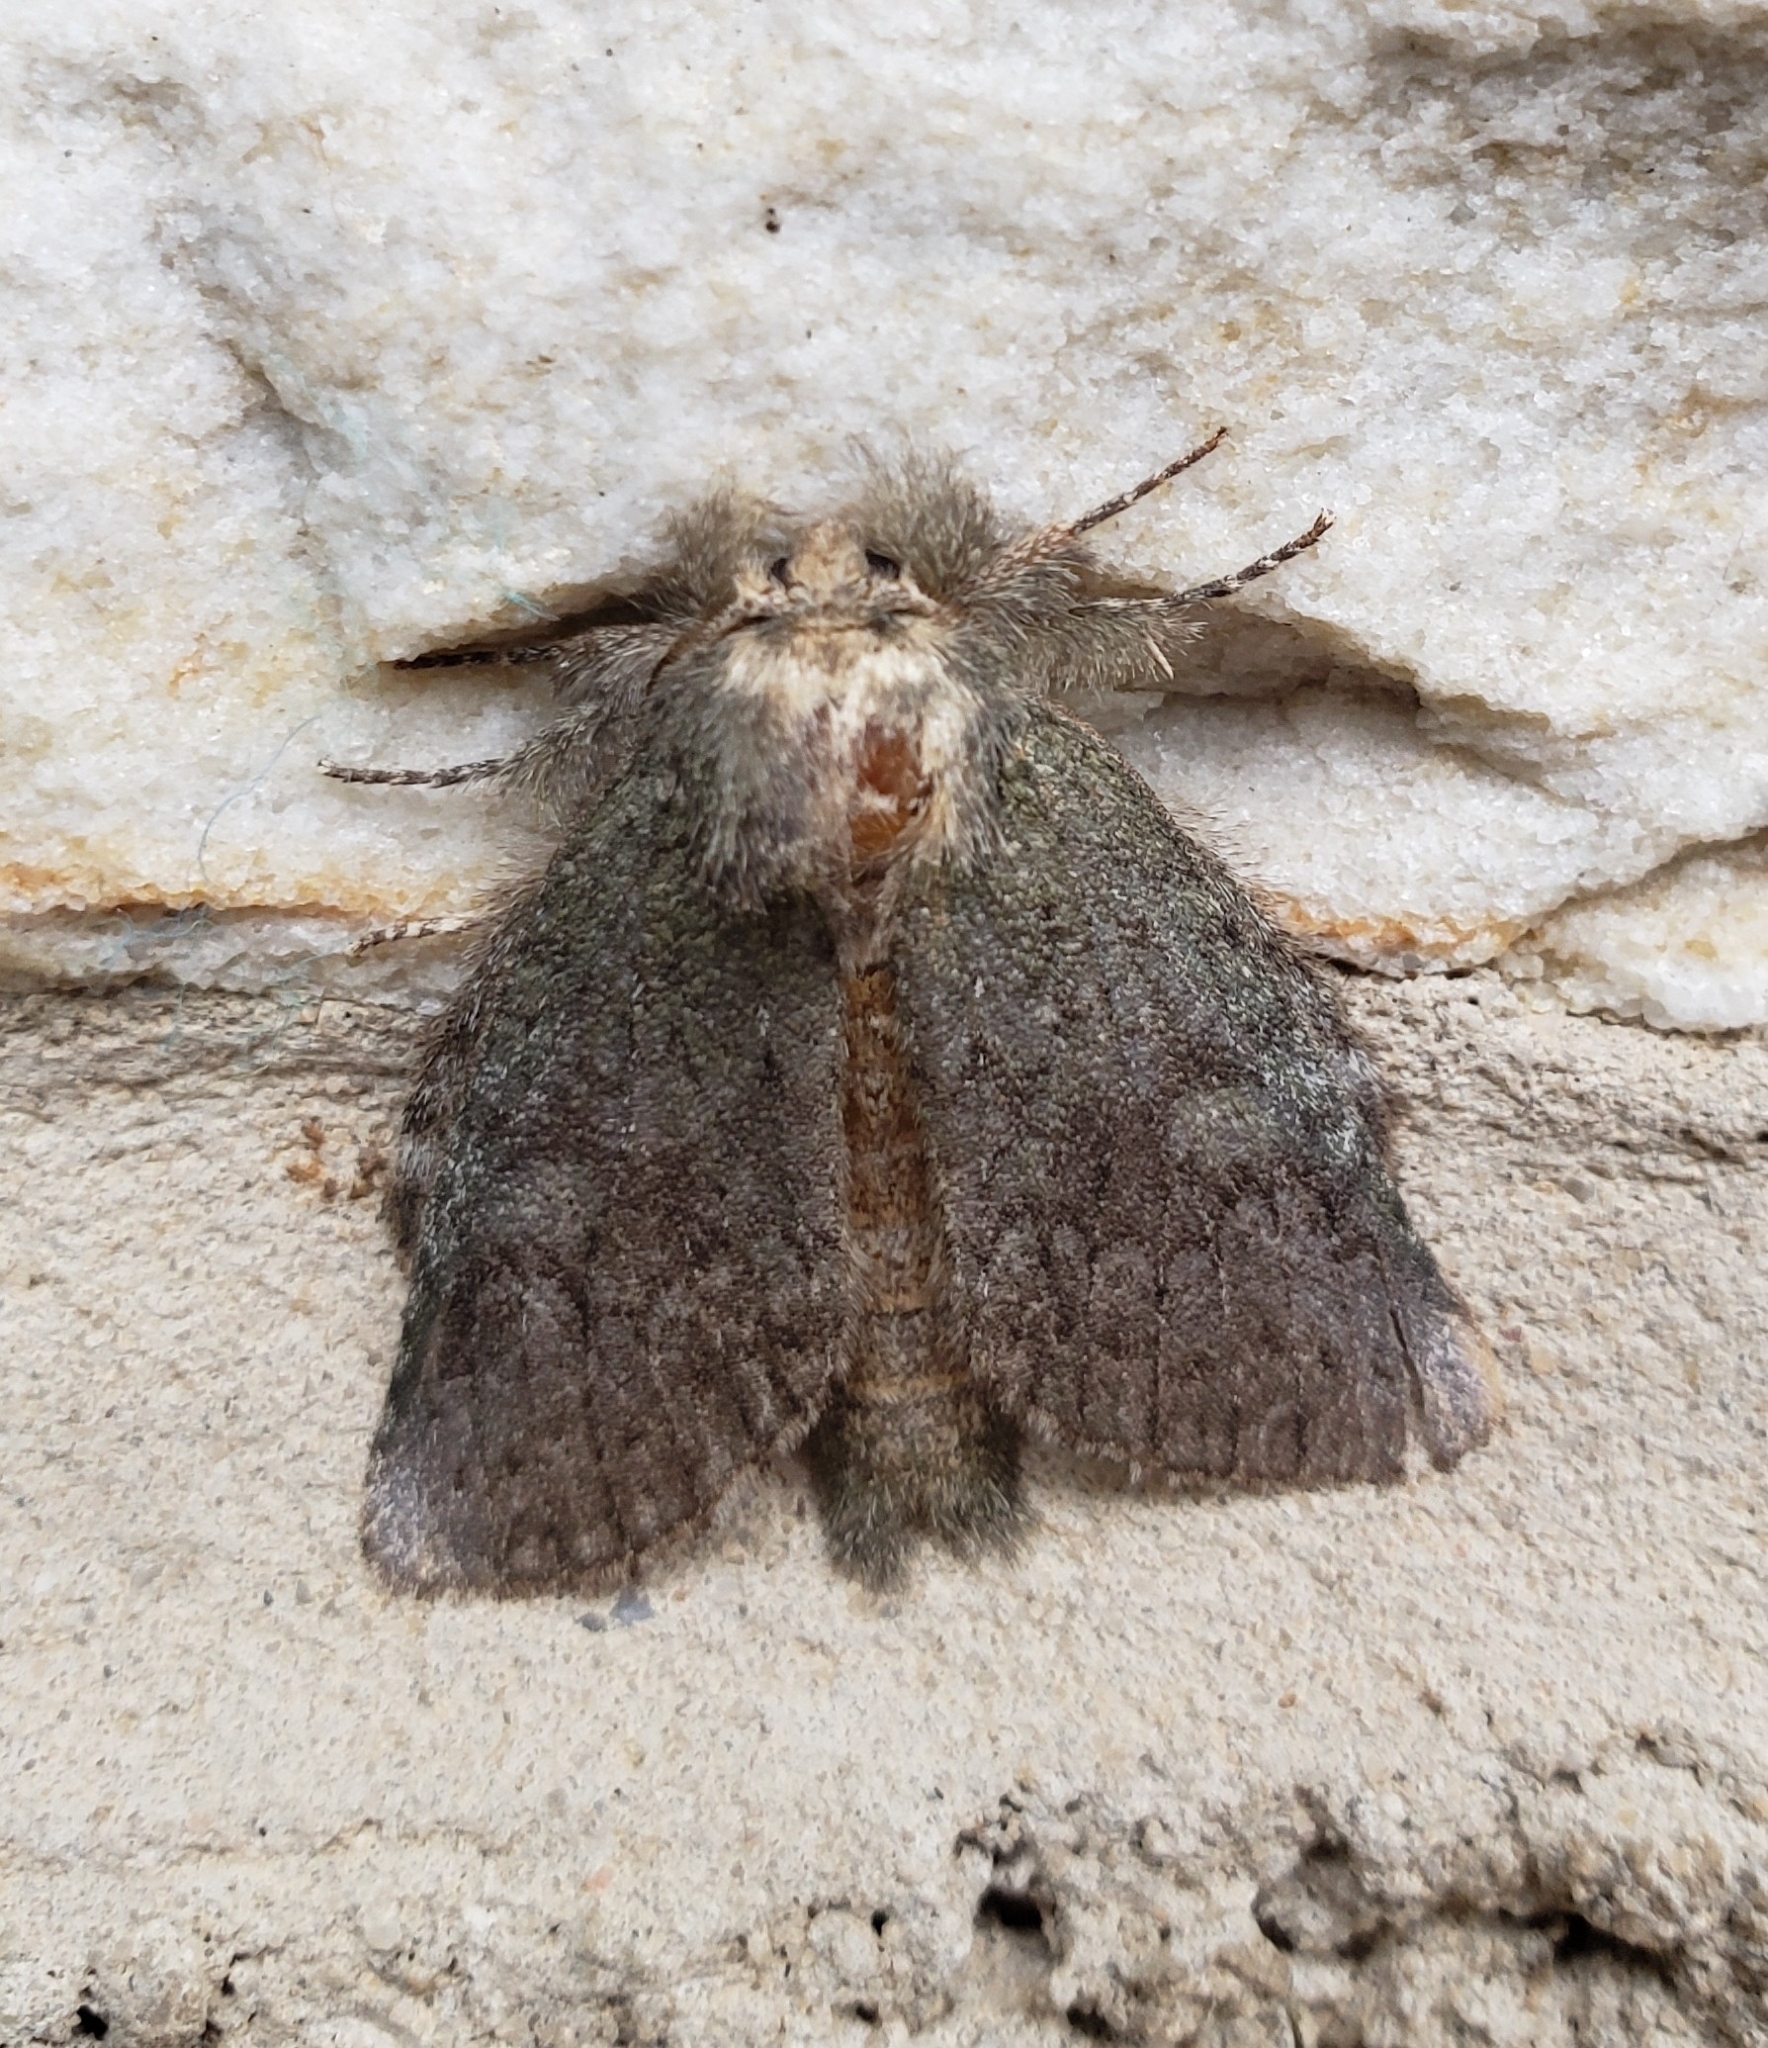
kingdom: Animalia
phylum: Arthropoda
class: Insecta
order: Lepidoptera
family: Notodontidae
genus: Disphragis
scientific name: Disphragis Cecrita guttivitta
